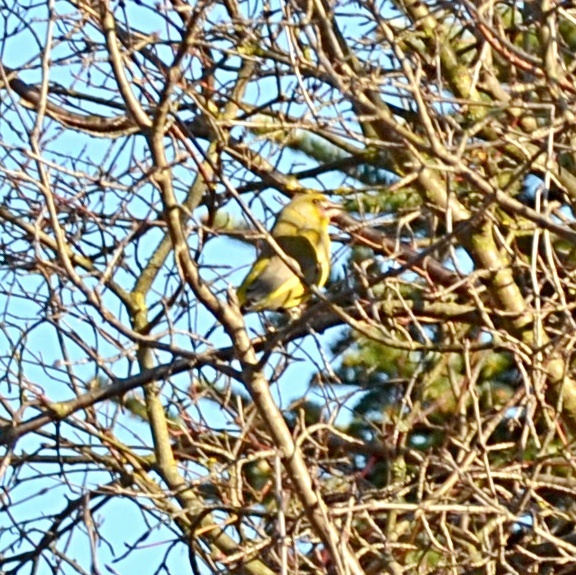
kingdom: Plantae
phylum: Tracheophyta
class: Liliopsida
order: Poales
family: Poaceae
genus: Chloris
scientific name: Chloris chloris
